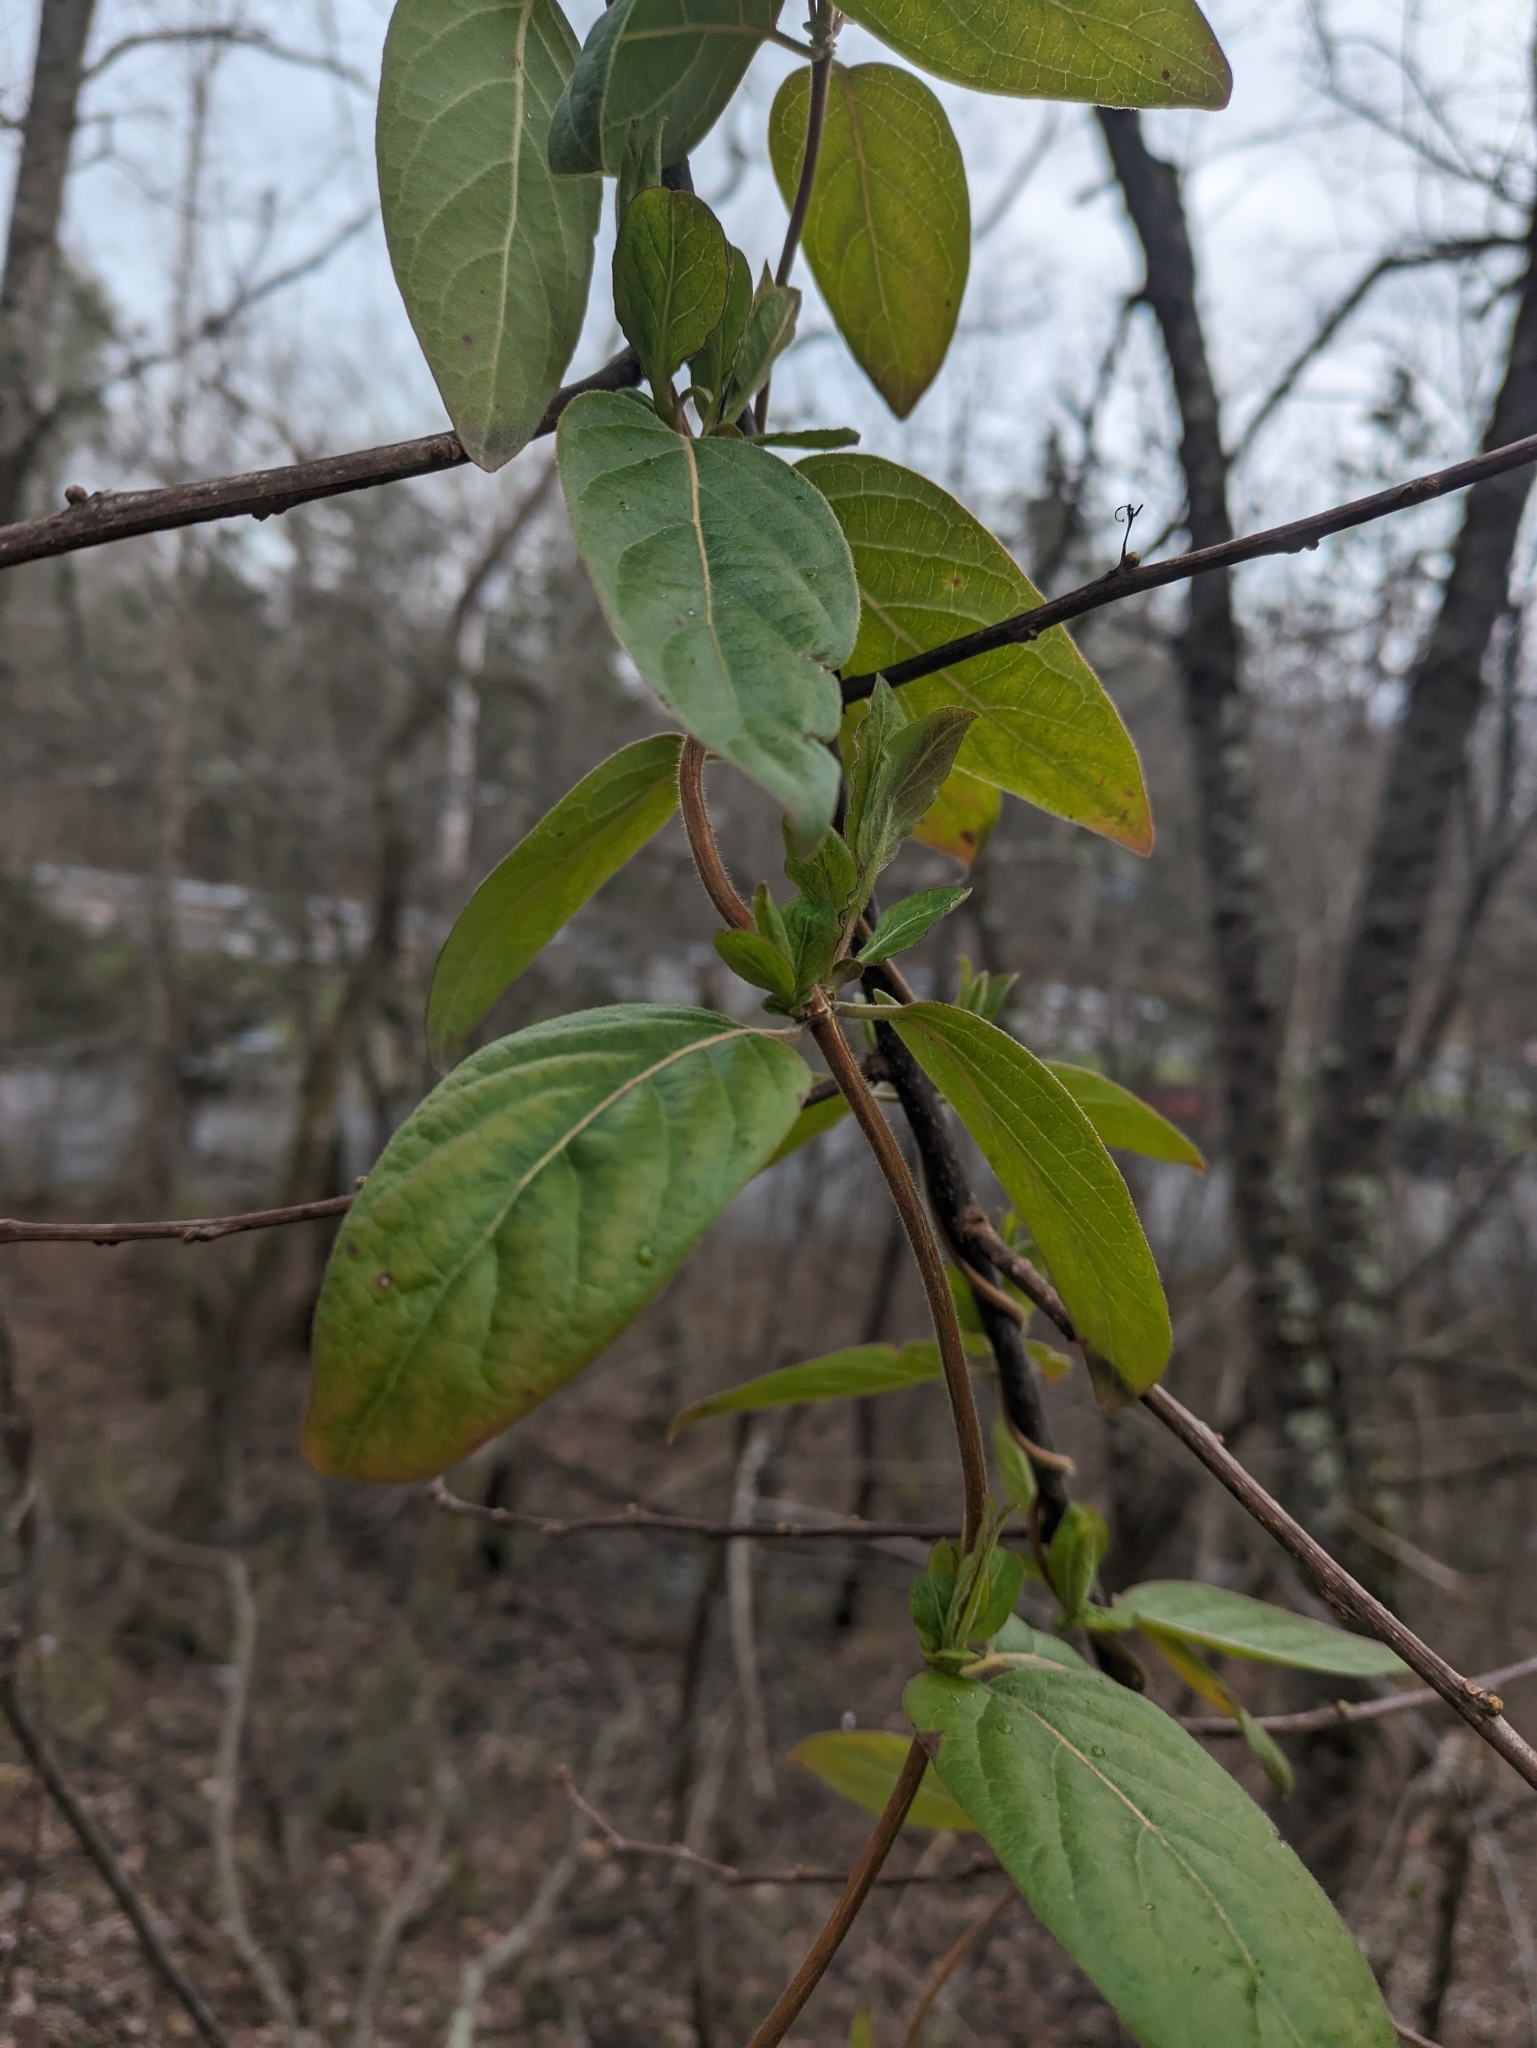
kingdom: Plantae
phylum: Tracheophyta
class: Magnoliopsida
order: Dipsacales
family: Caprifoliaceae
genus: Lonicera
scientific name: Lonicera japonica
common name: Japanese honeysuckle
